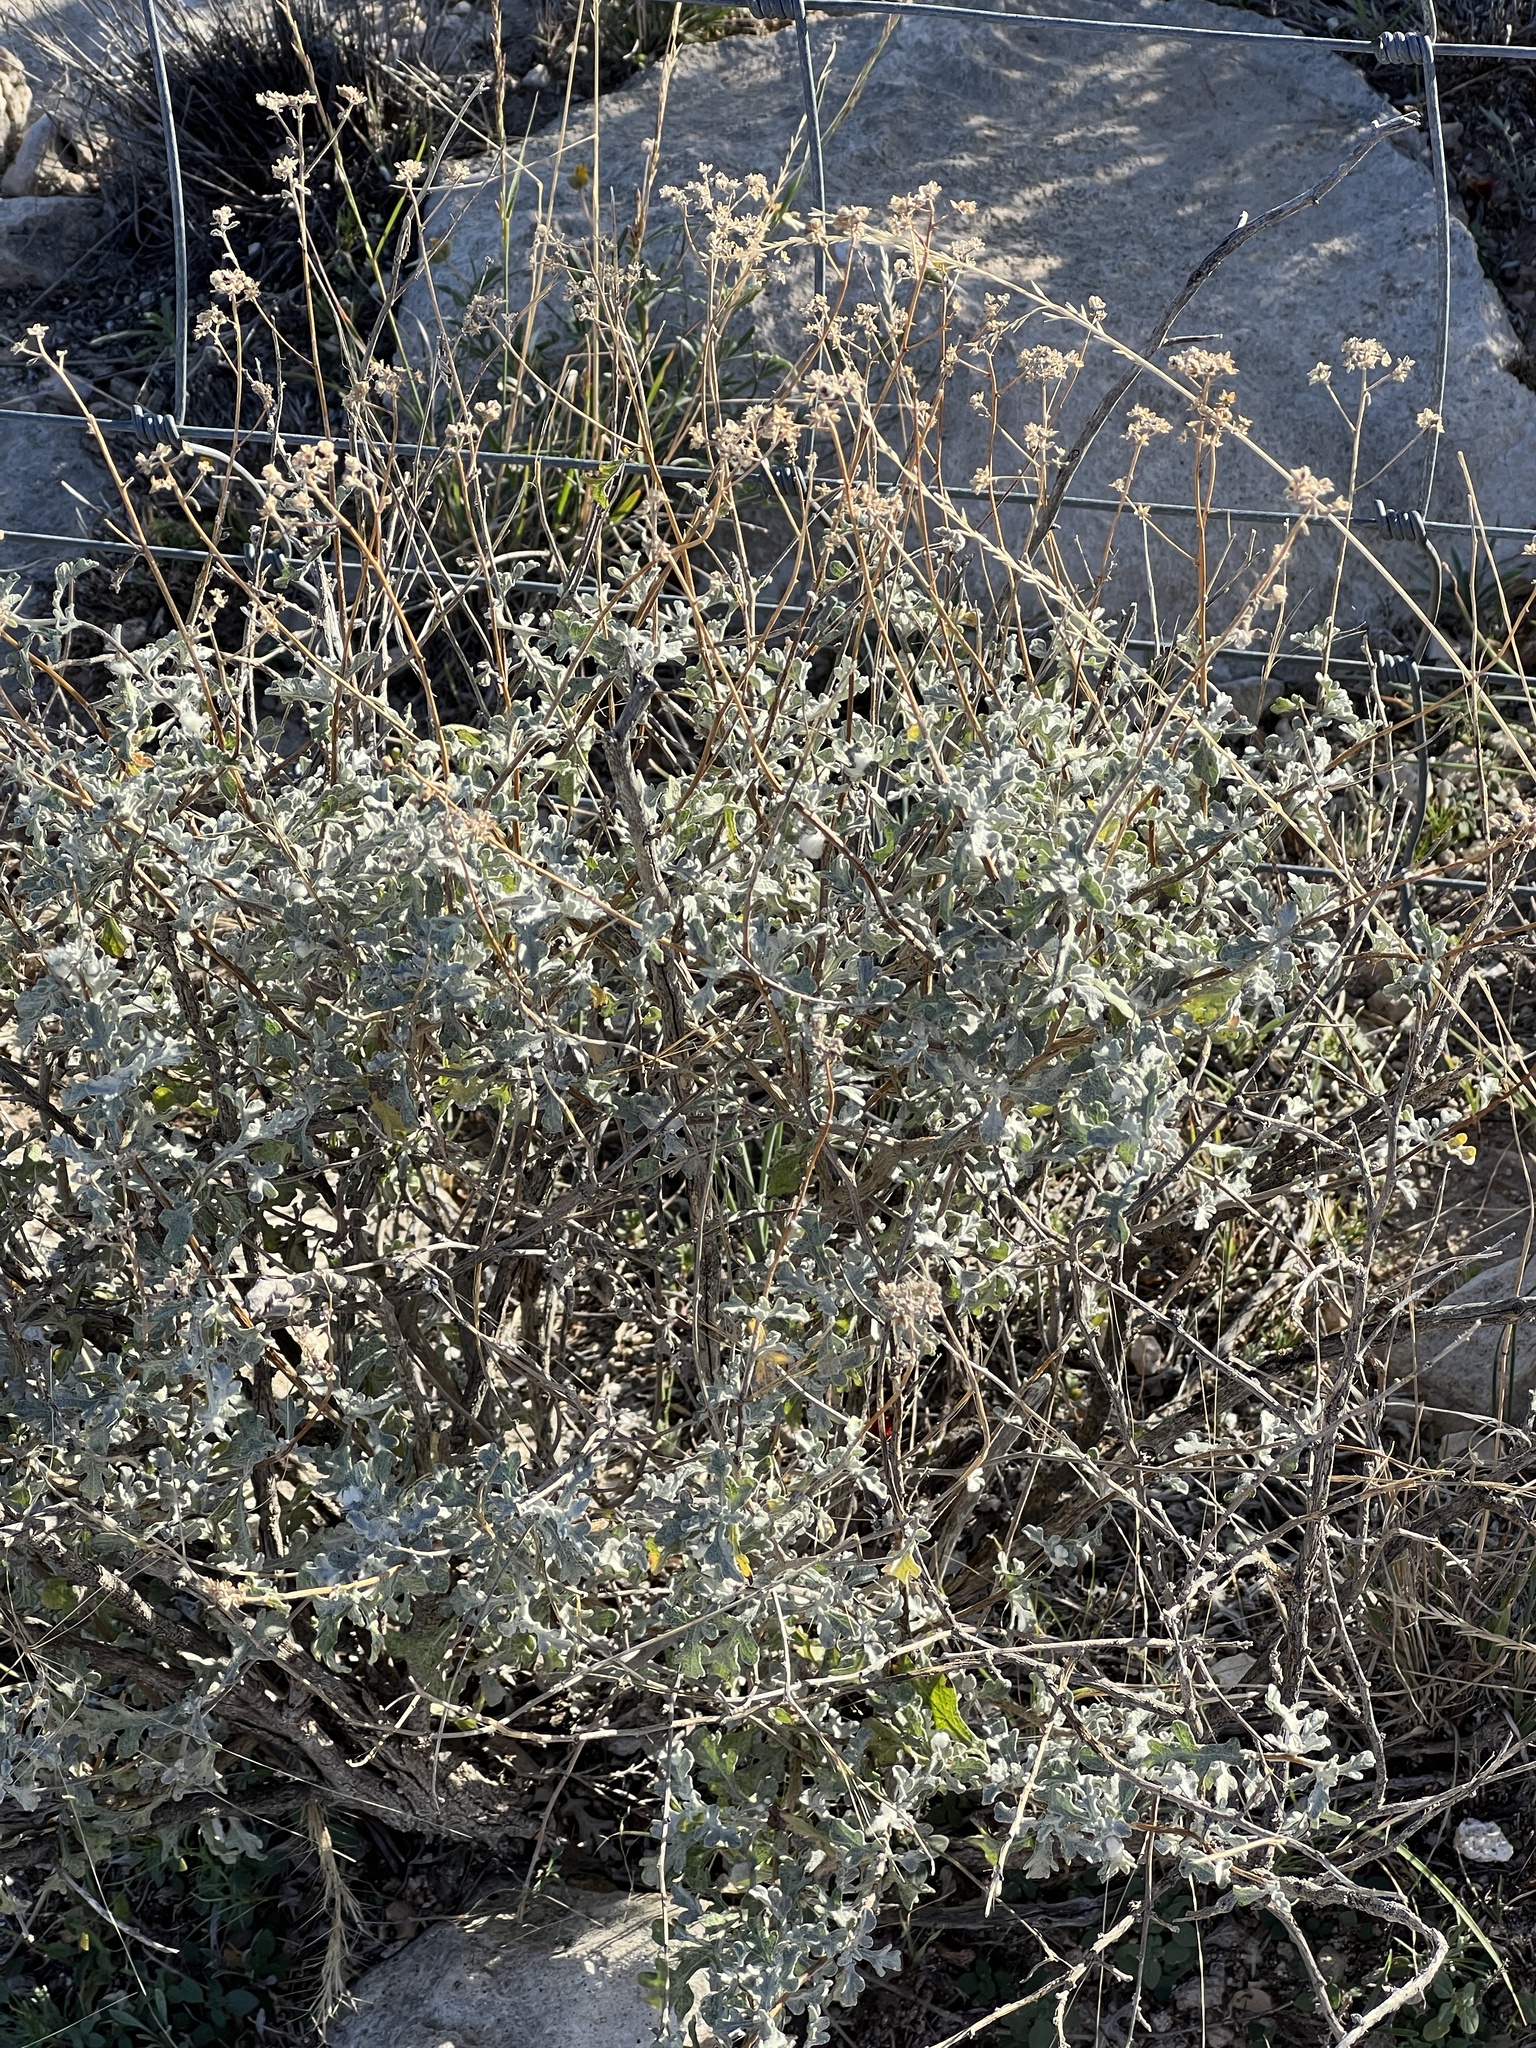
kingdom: Plantae
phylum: Tracheophyta
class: Magnoliopsida
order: Asterales
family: Asteraceae
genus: Parthenium
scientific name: Parthenium incanum
